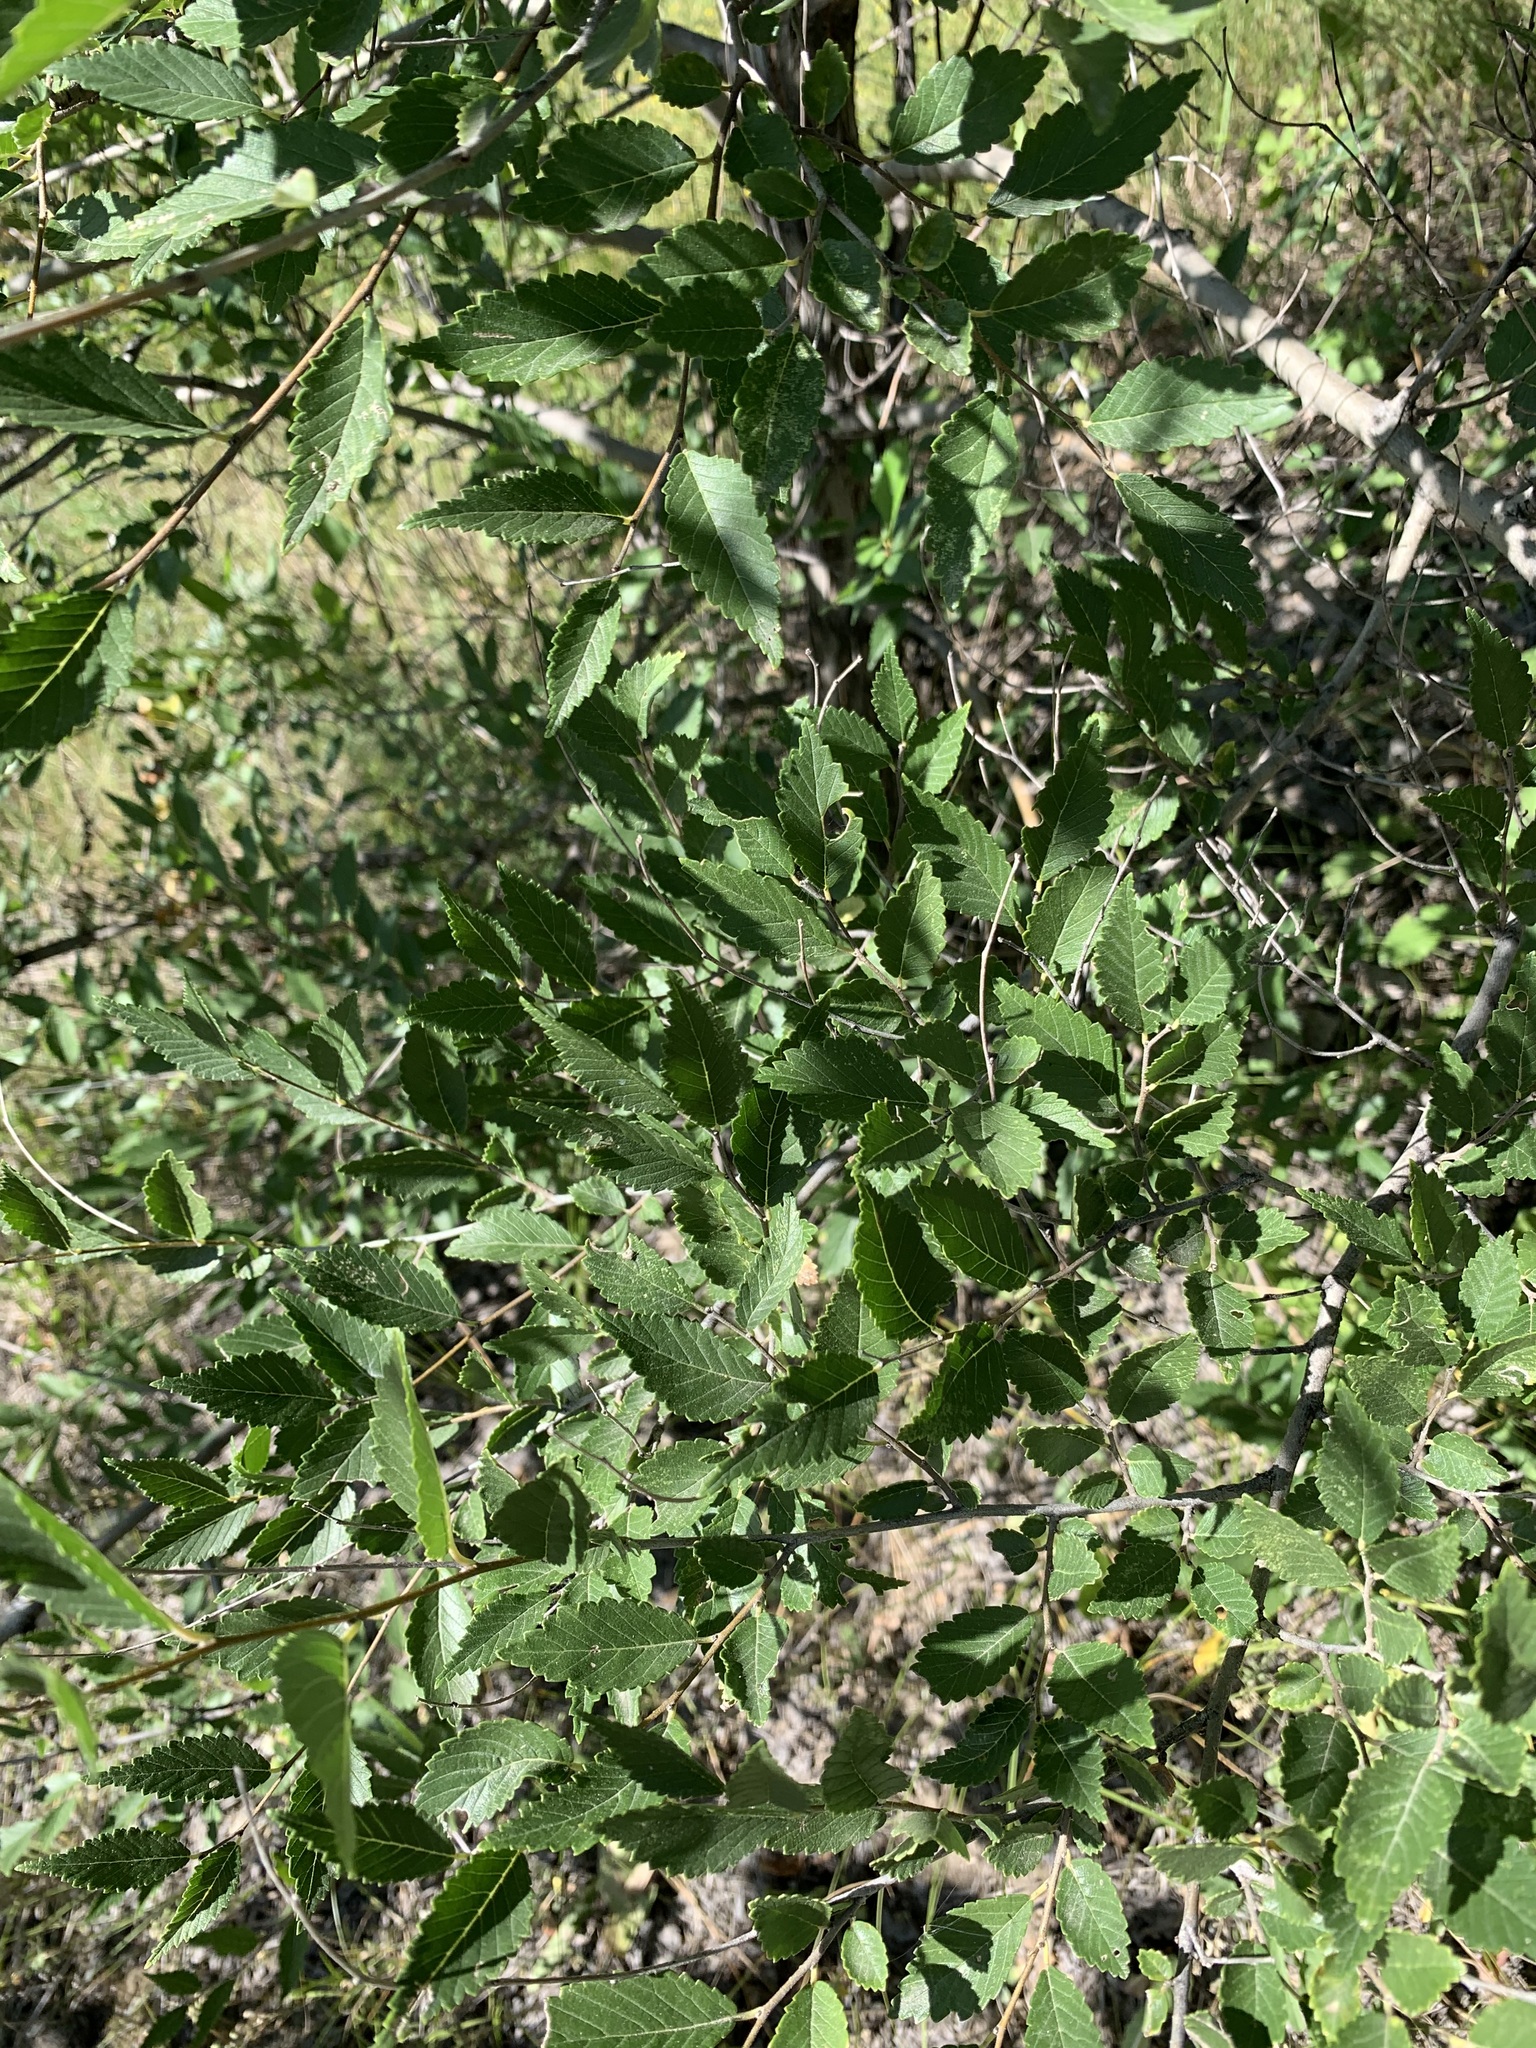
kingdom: Plantae
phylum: Tracheophyta
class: Magnoliopsida
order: Rosales
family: Ulmaceae
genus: Ulmus
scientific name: Ulmus pumila
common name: Siberian elm
